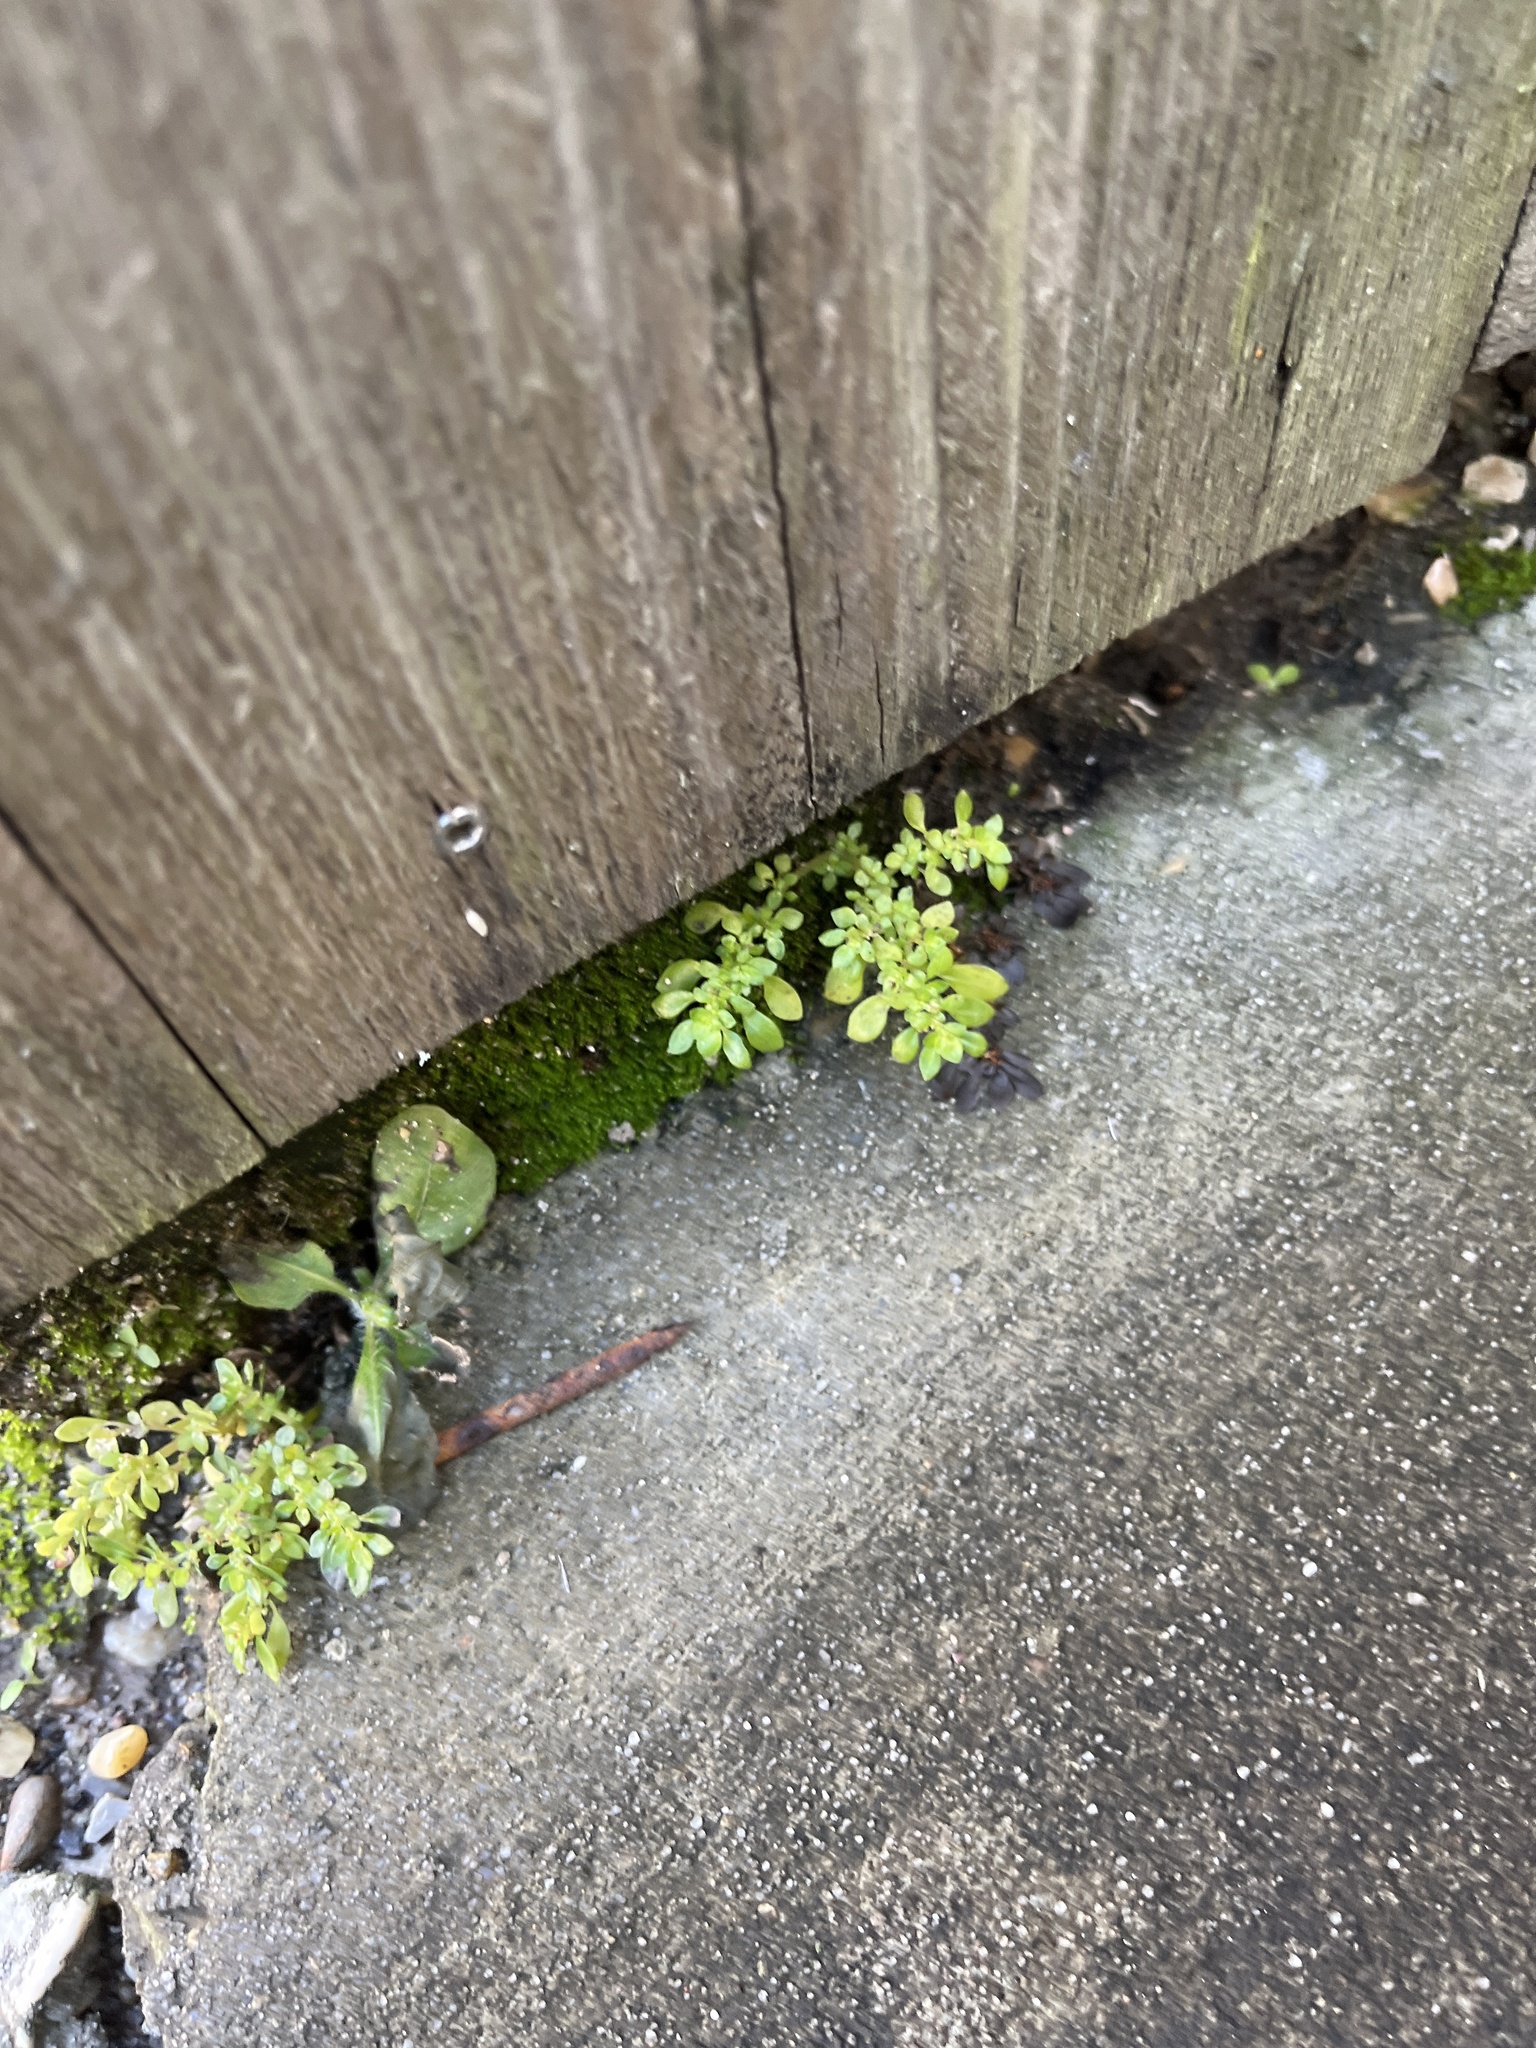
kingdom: Plantae
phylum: Tracheophyta
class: Magnoliopsida
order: Rosales
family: Urticaceae
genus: Pilea
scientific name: Pilea microphylla
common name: Artillery-plant
